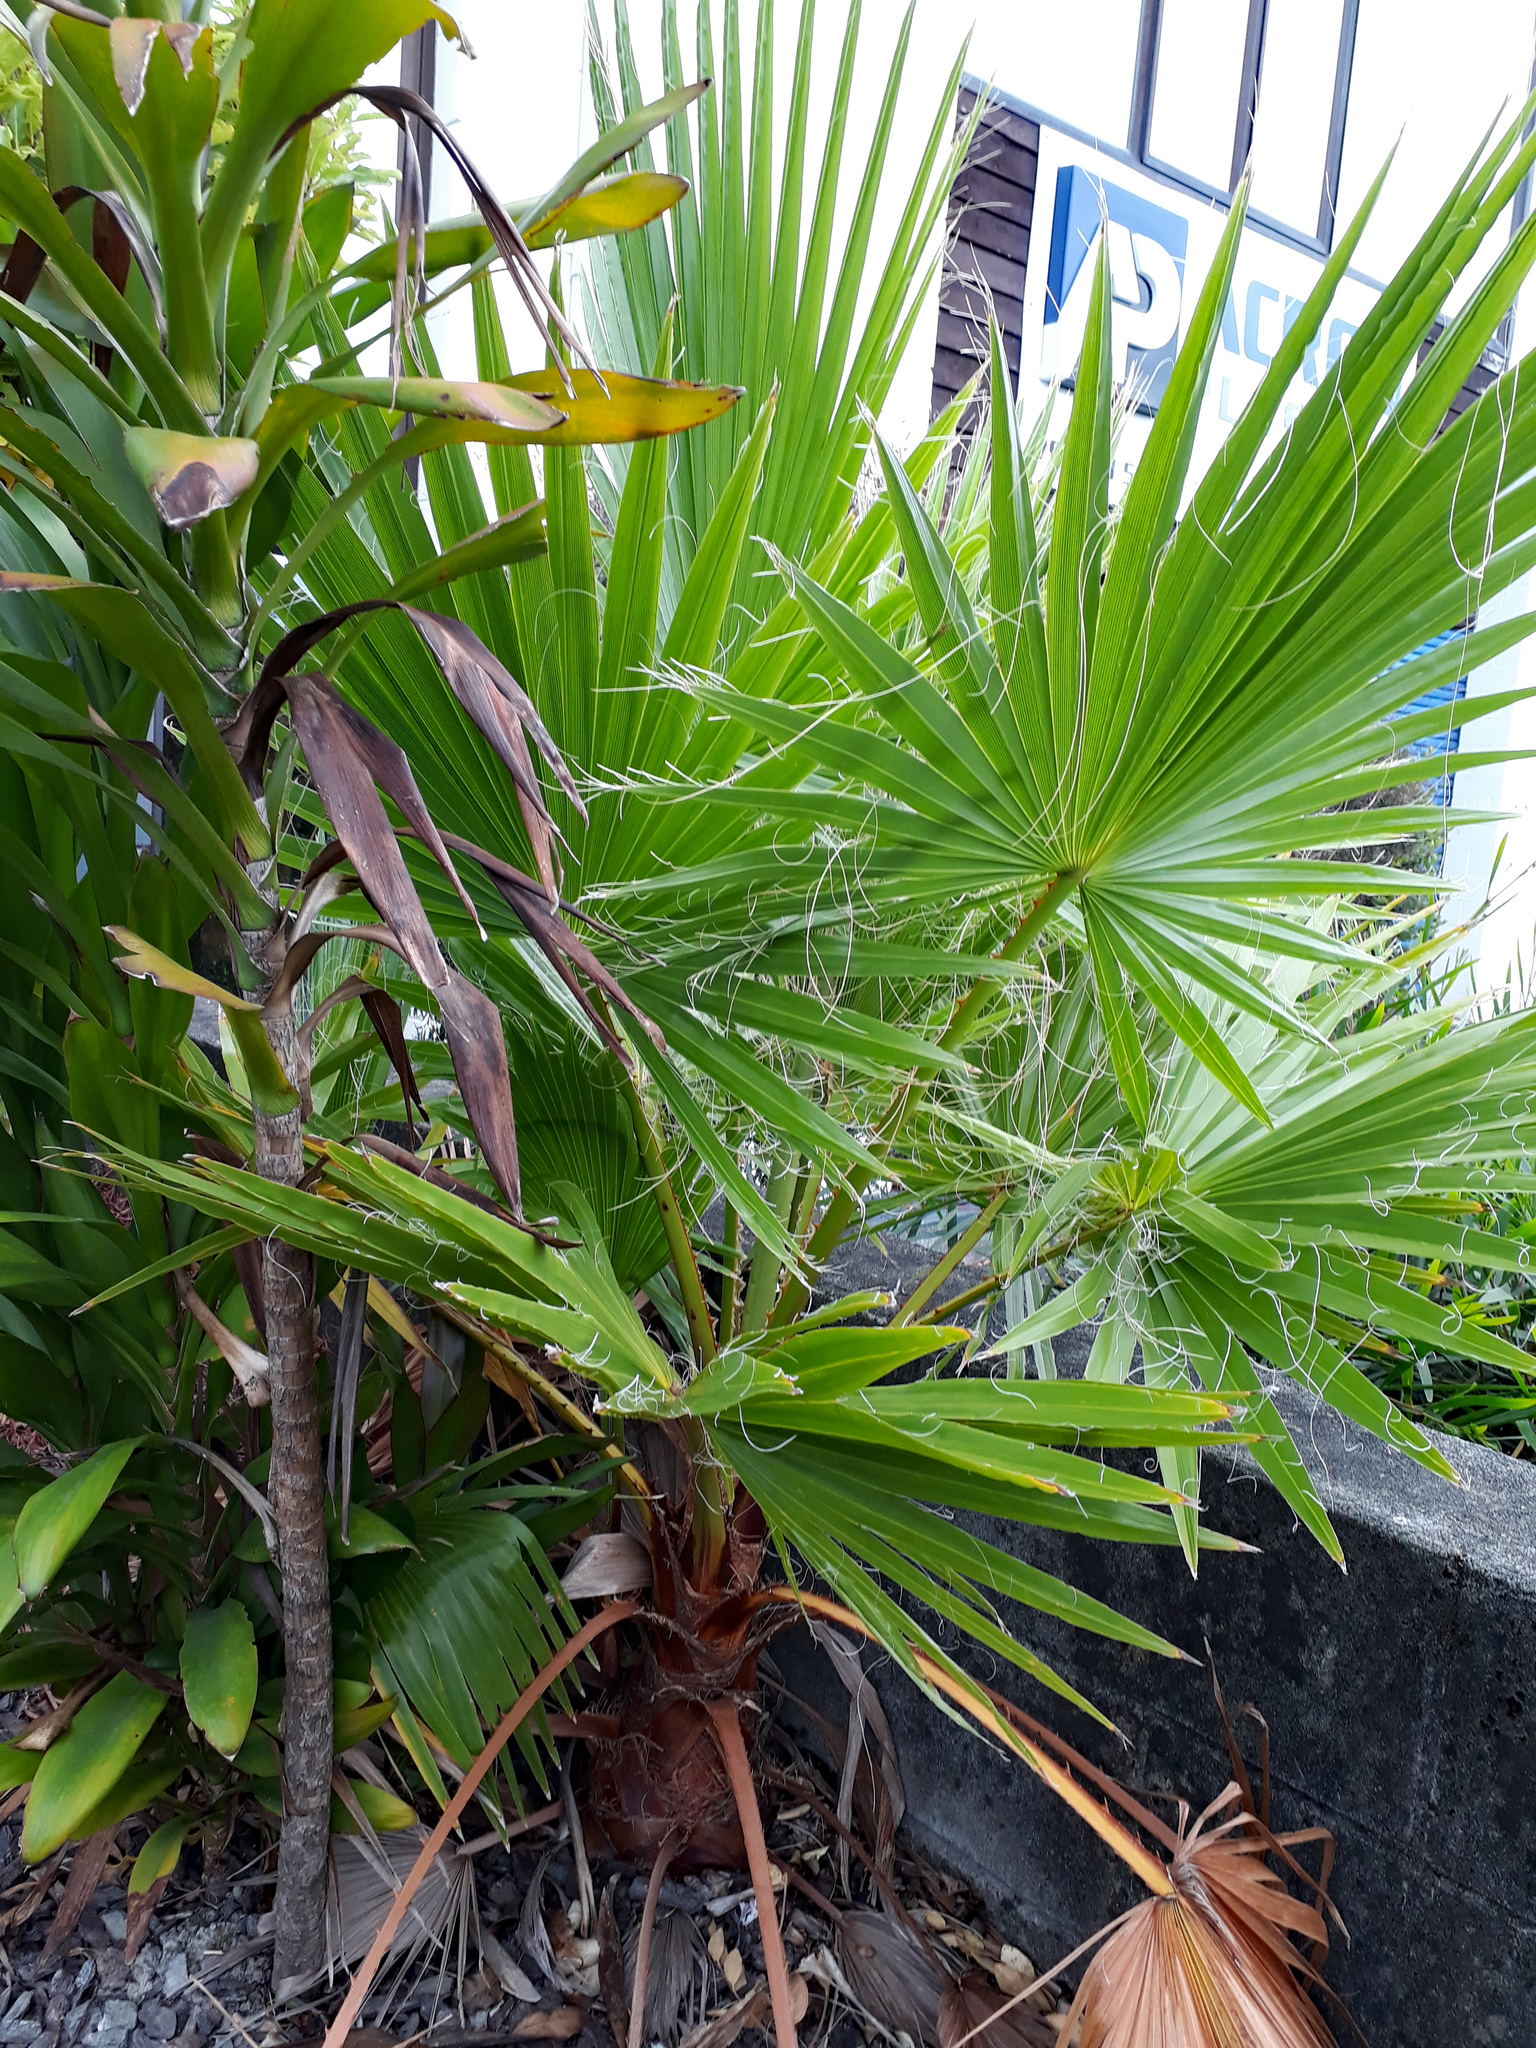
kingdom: Plantae
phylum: Tracheophyta
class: Liliopsida
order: Arecales
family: Arecaceae
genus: Washingtonia
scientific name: Washingtonia robusta
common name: Mexican fan palm
